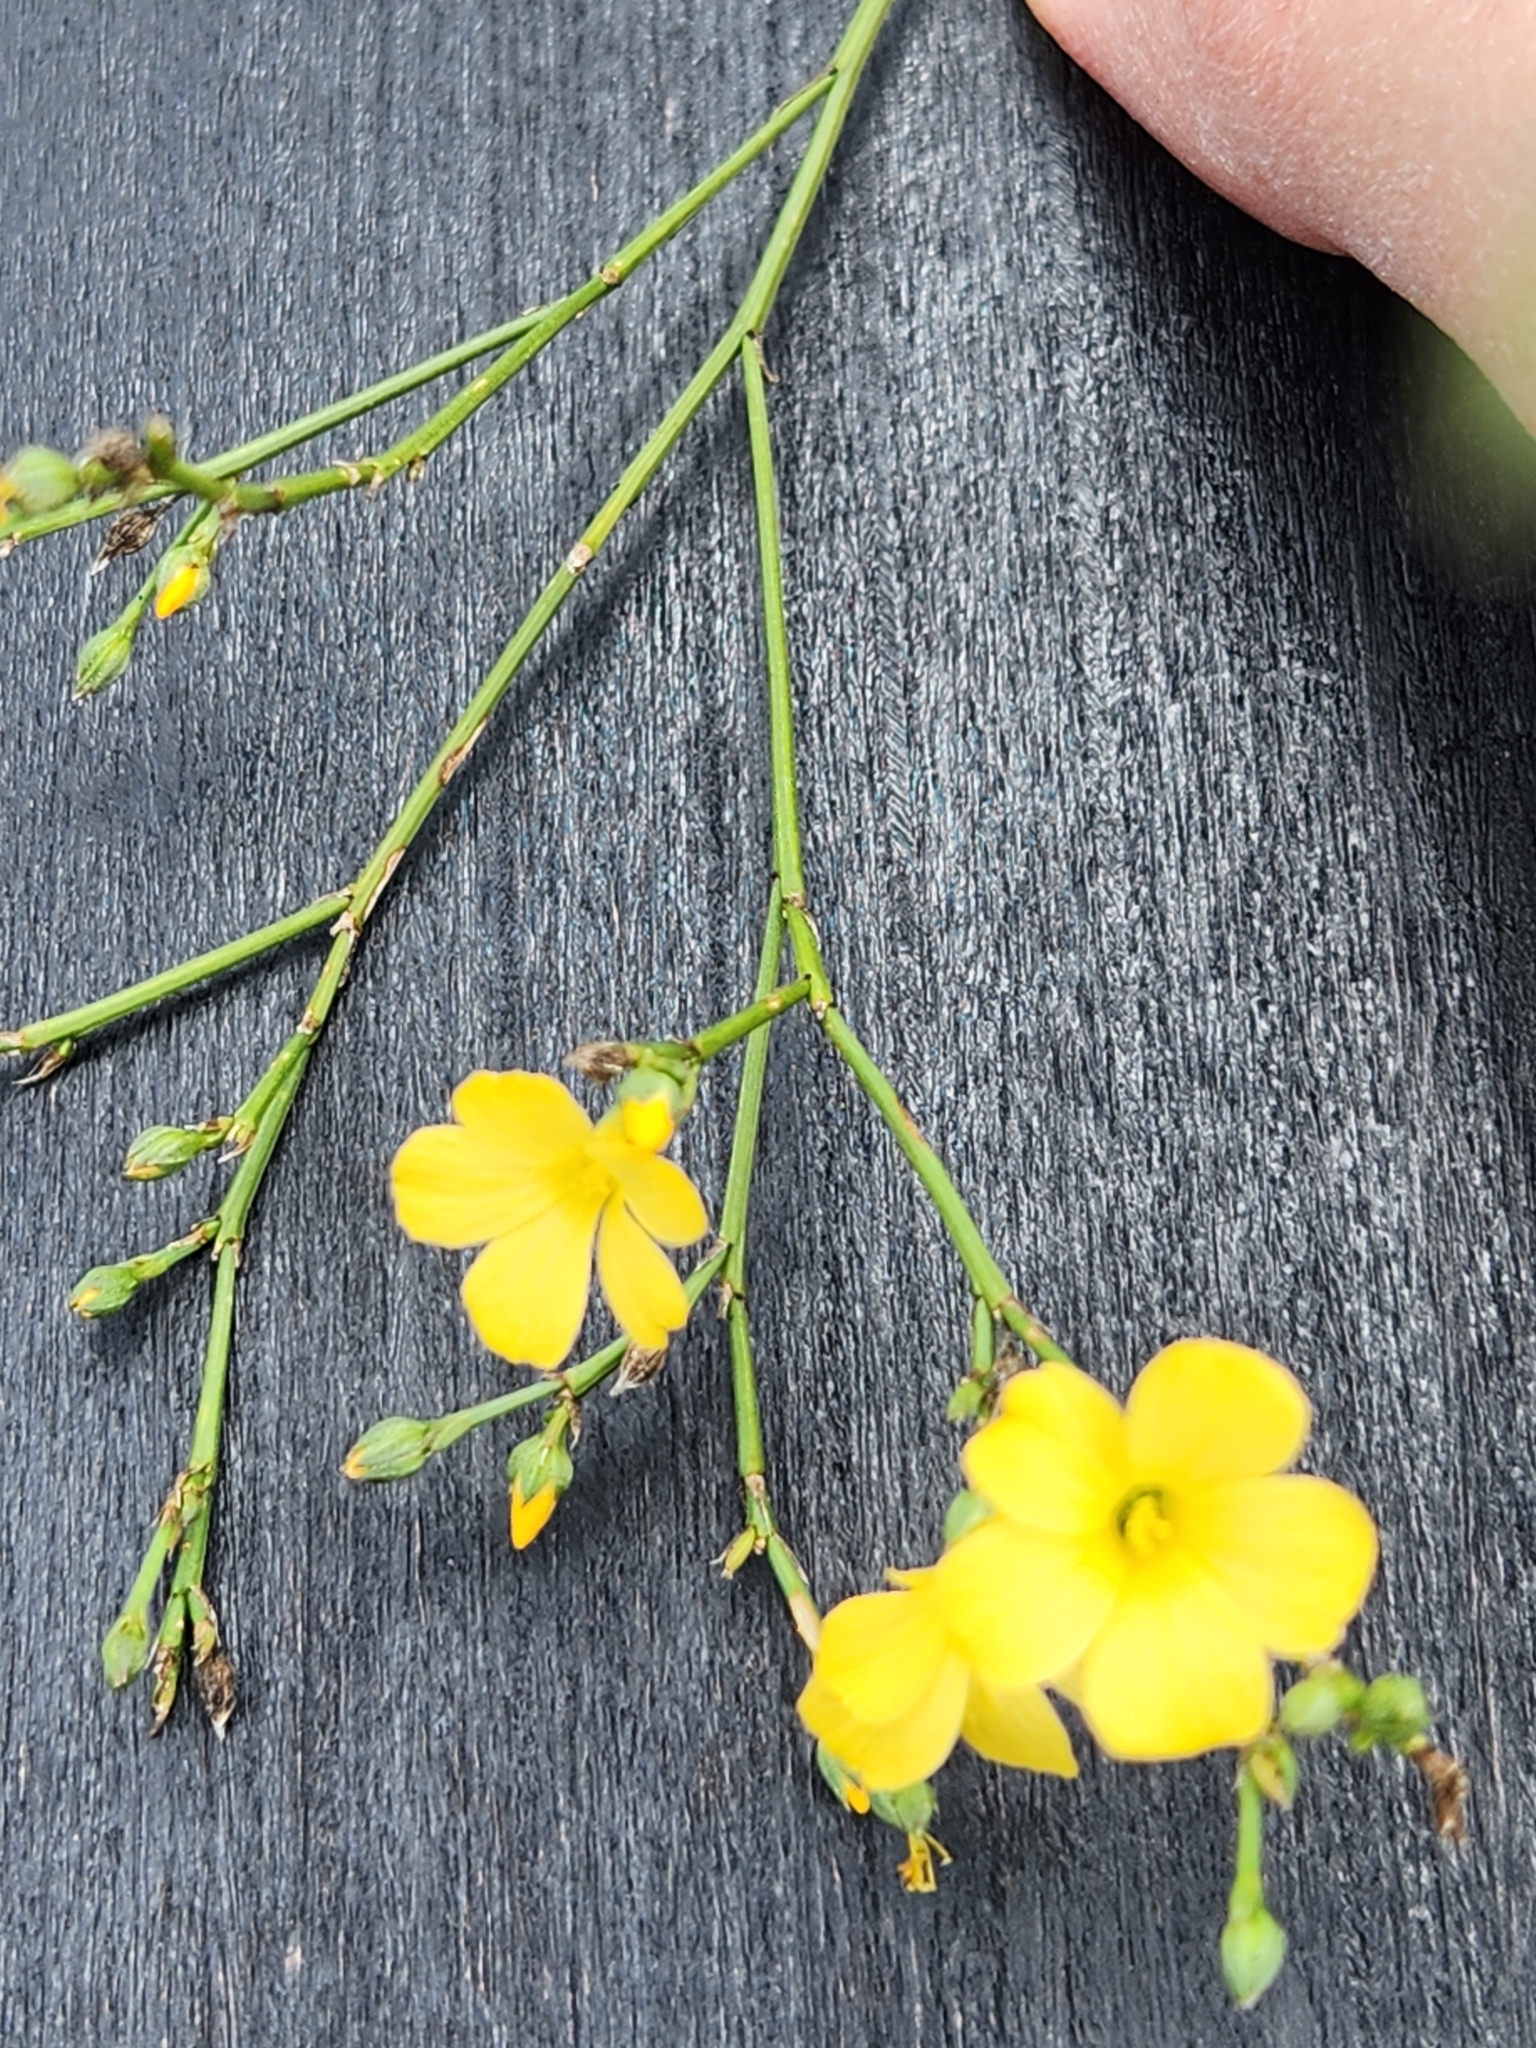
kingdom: Plantae
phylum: Tracheophyta
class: Magnoliopsida
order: Malpighiales
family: Linaceae
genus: Linum
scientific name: Linum rupestre
